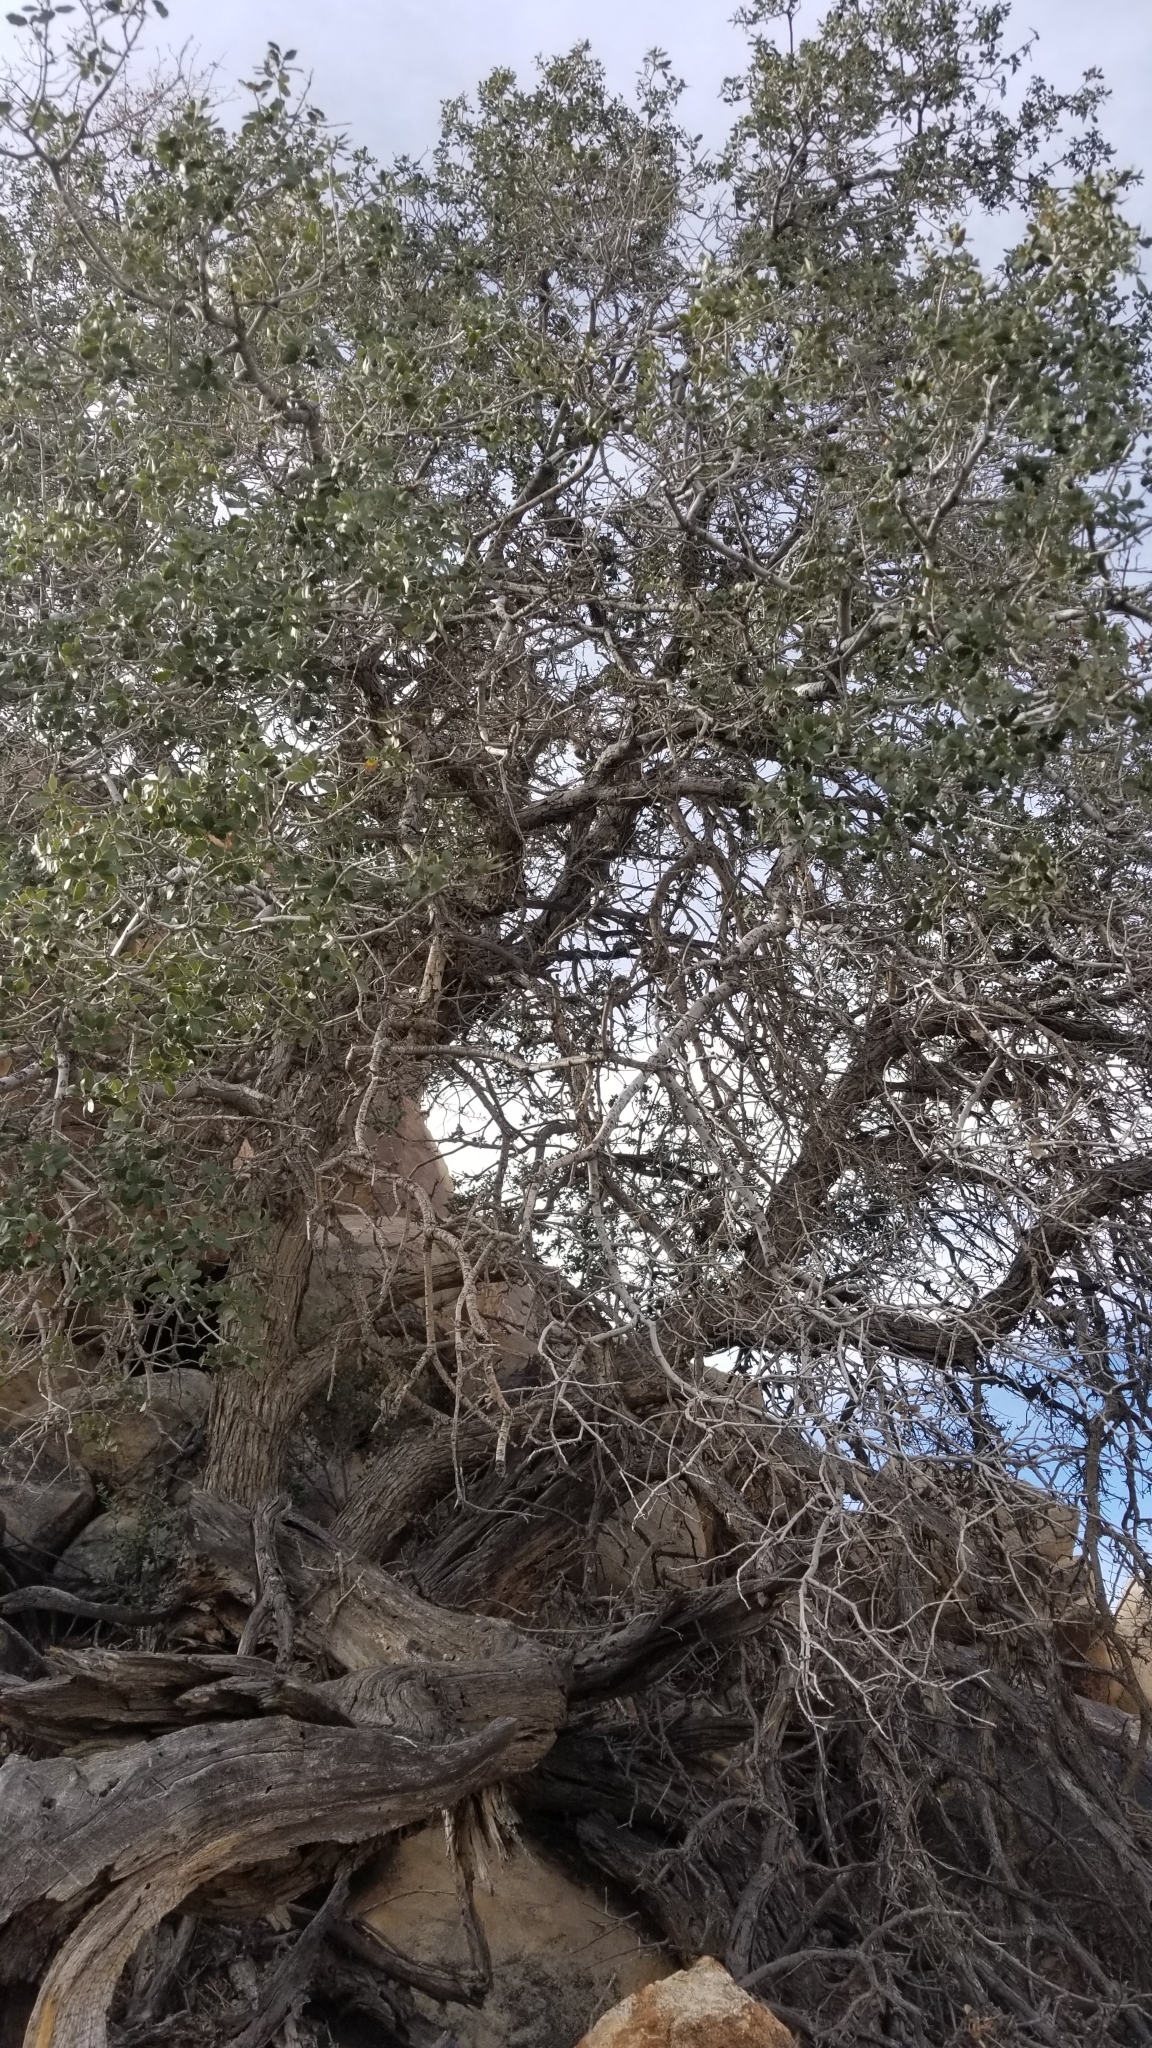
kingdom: Plantae
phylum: Tracheophyta
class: Magnoliopsida
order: Fagales
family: Fagaceae
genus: Quercus
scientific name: Quercus cornelius-mulleri
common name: Muller oak
